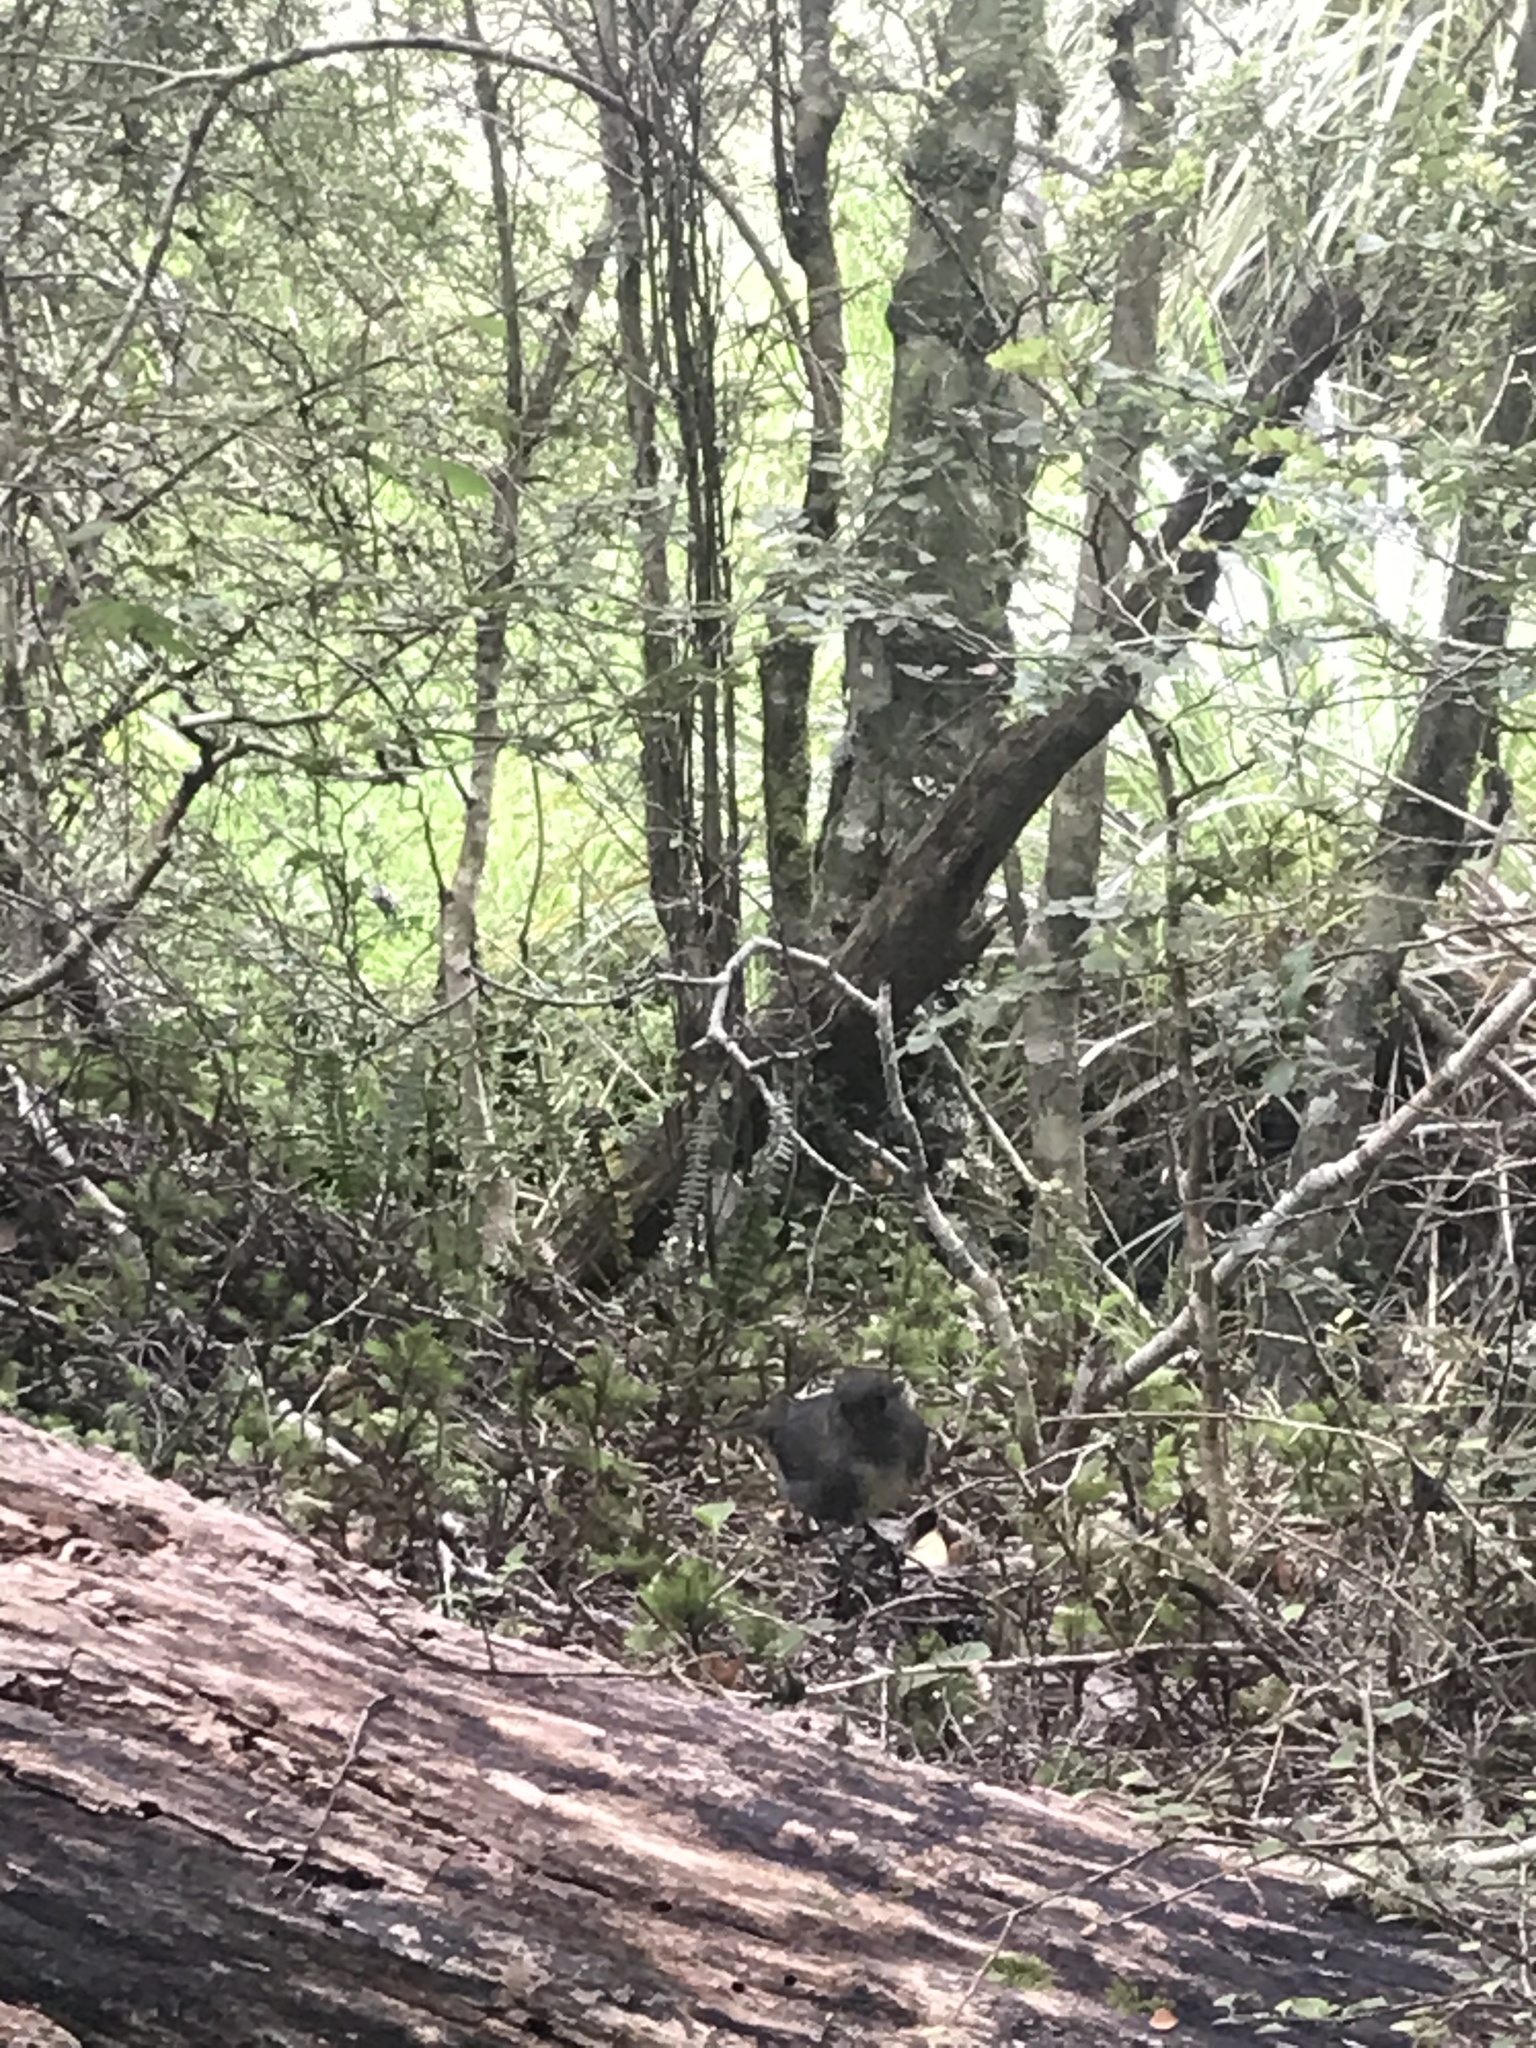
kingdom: Animalia
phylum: Chordata
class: Aves
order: Passeriformes
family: Petroicidae
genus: Petroica
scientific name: Petroica australis
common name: New zealand robin
